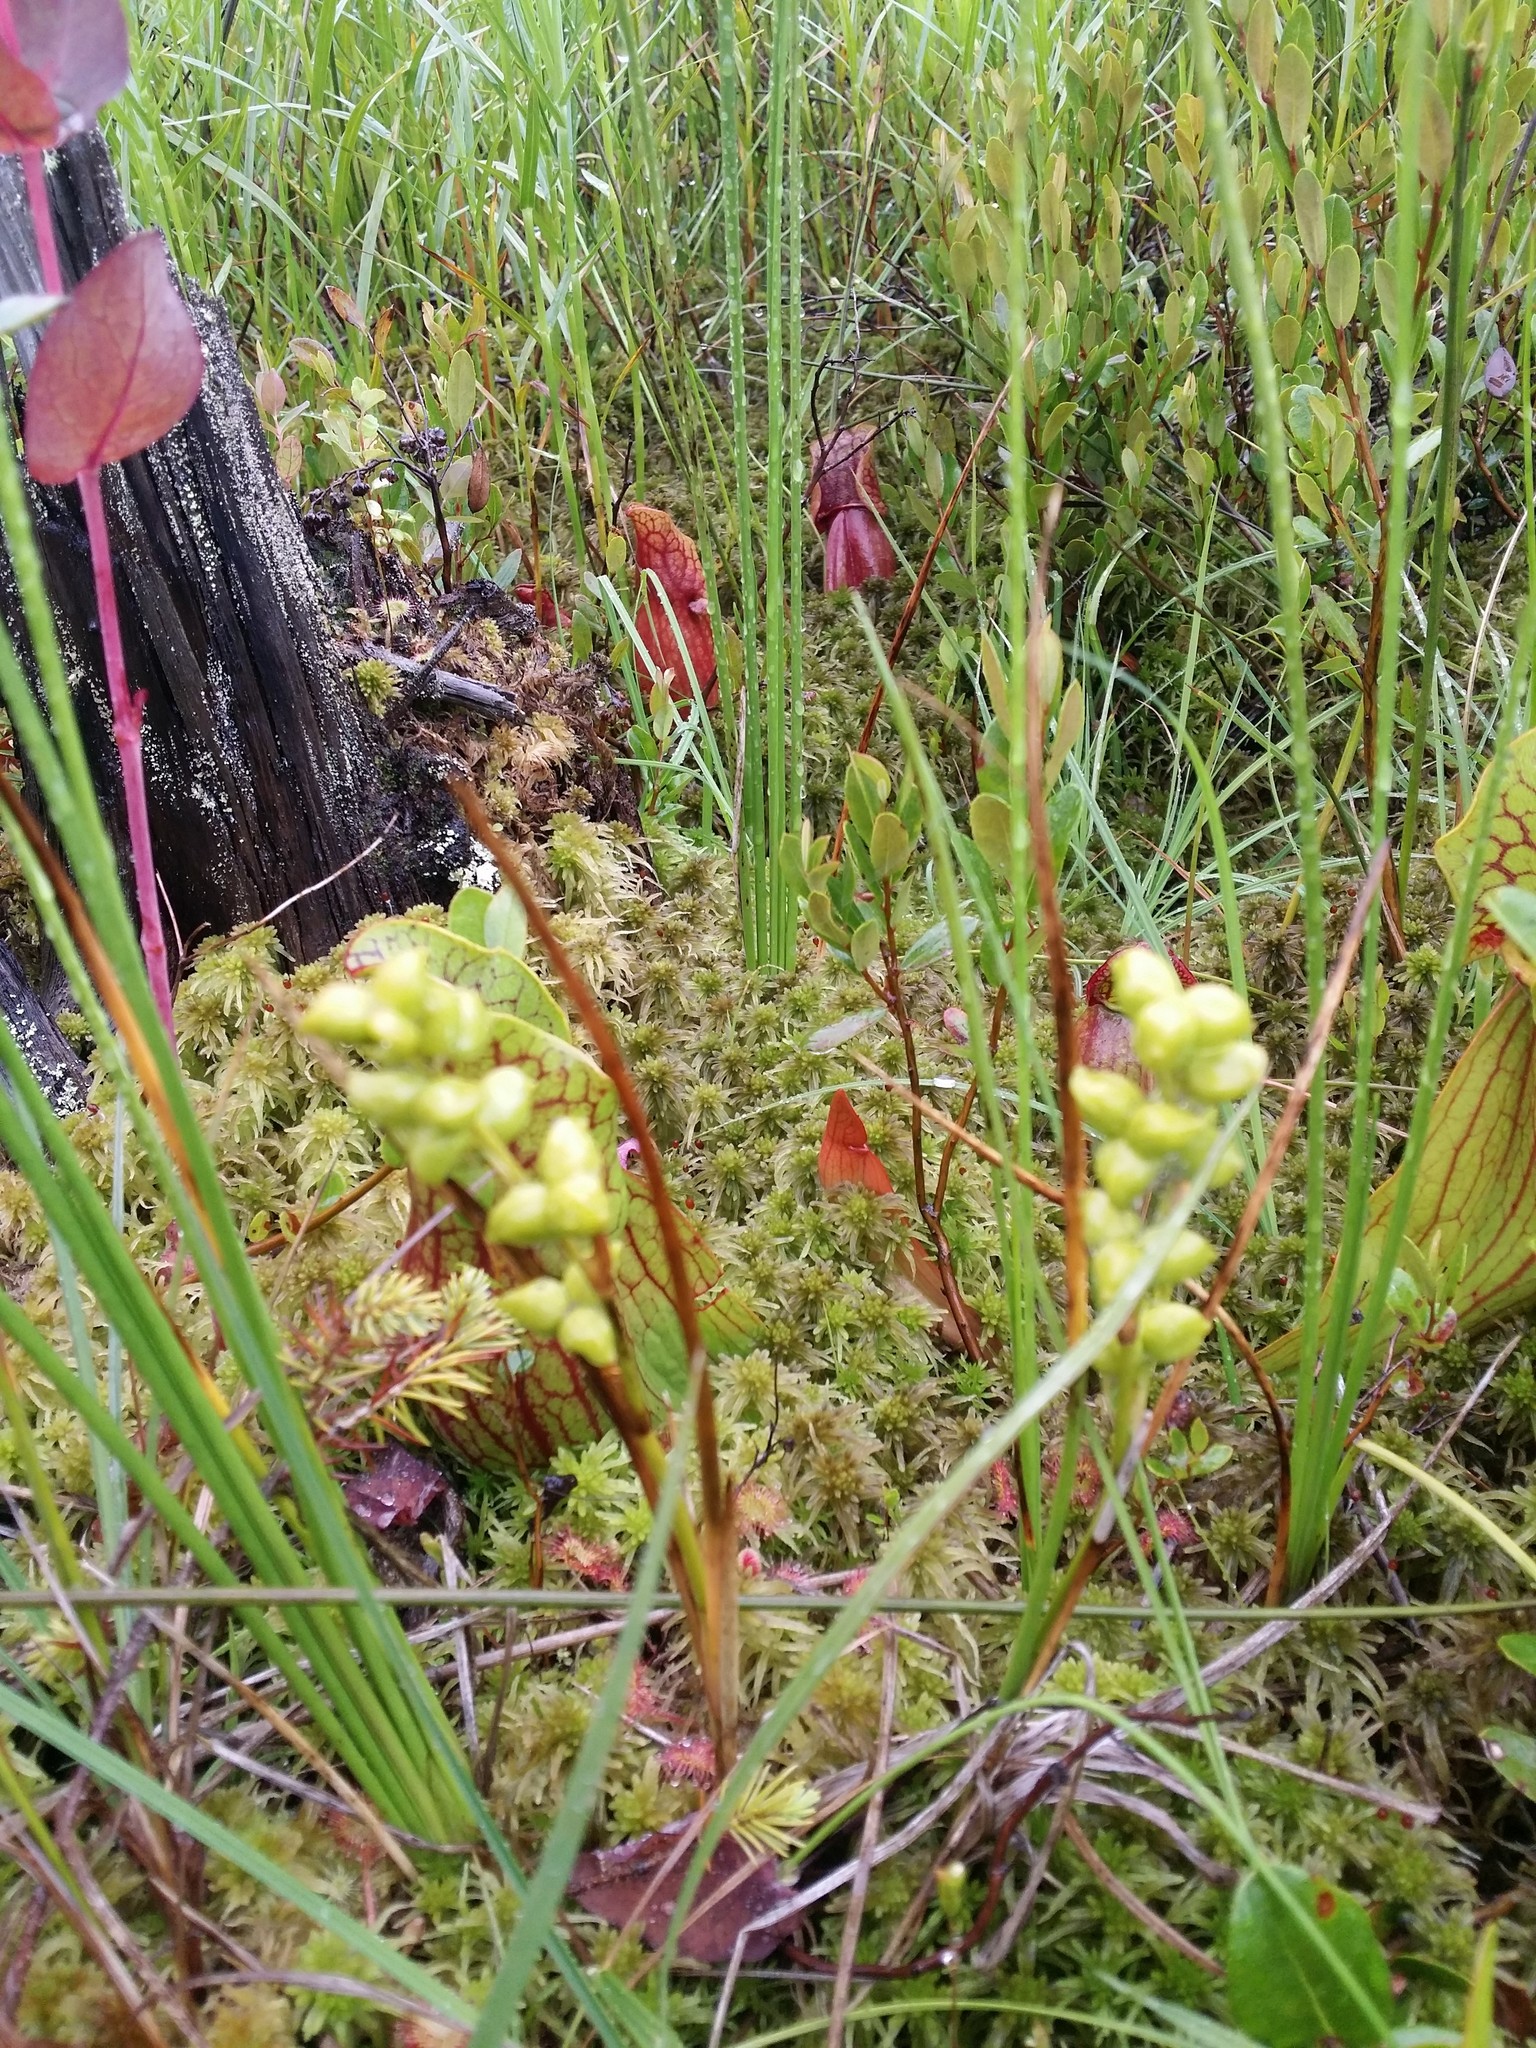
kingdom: Plantae
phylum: Tracheophyta
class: Liliopsida
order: Alismatales
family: Scheuchzeriaceae
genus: Scheuchzeria
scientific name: Scheuchzeria palustris
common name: Rannoch-rush
